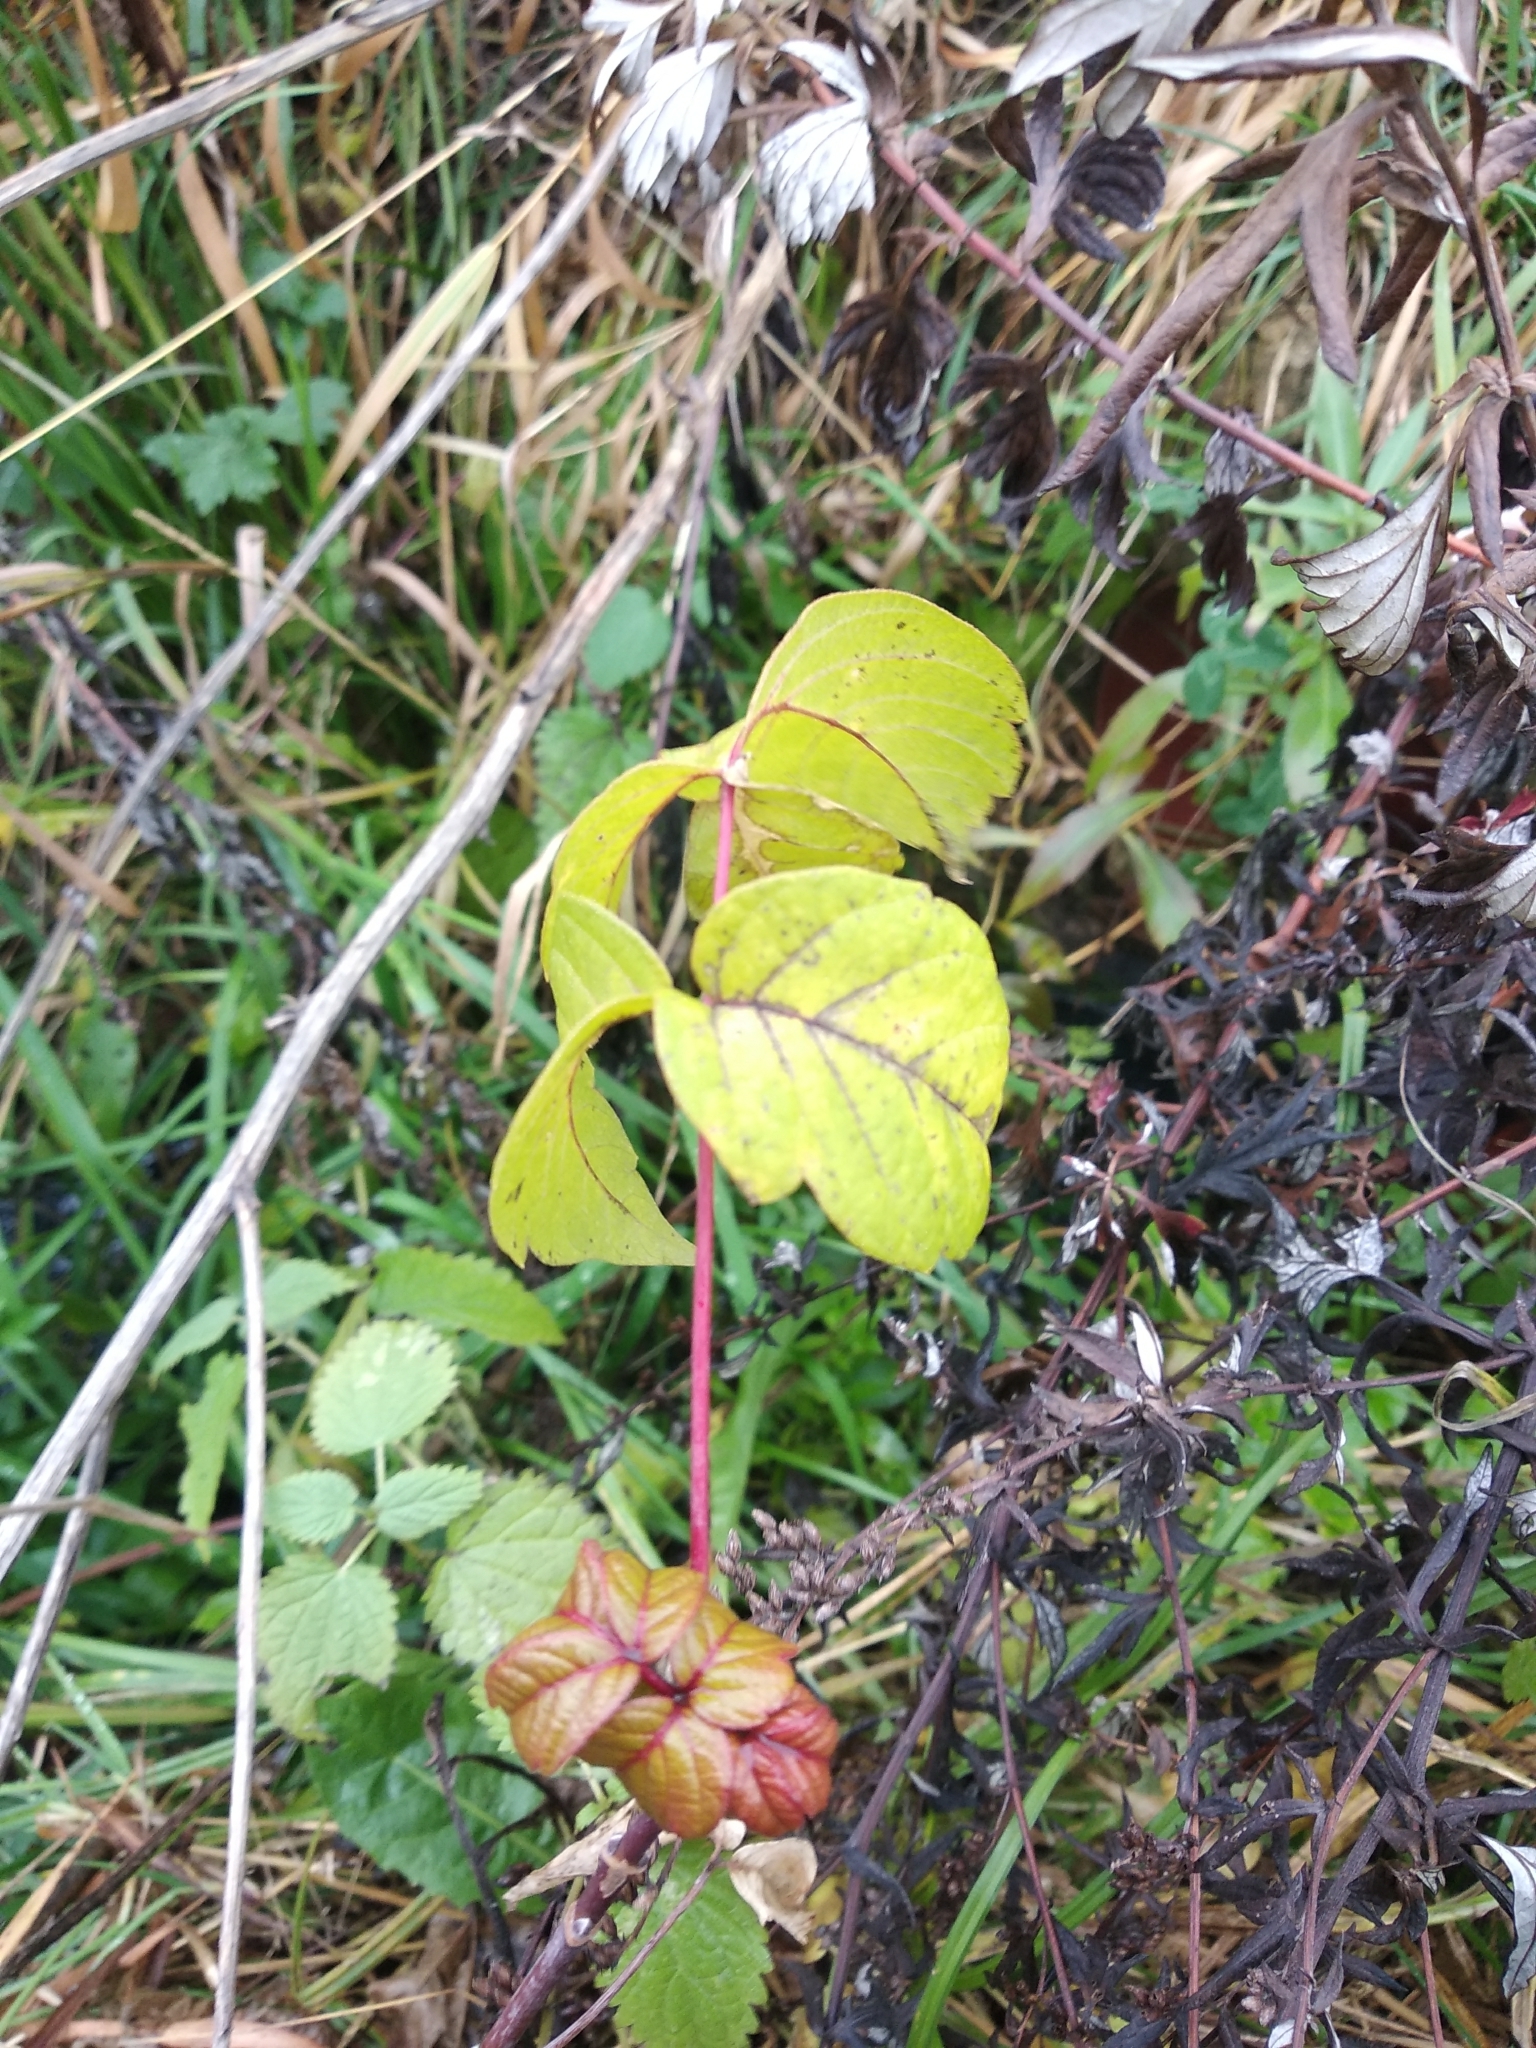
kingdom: Plantae
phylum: Tracheophyta
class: Magnoliopsida
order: Sapindales
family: Sapindaceae
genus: Acer
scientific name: Acer negundo
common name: Ashleaf maple
